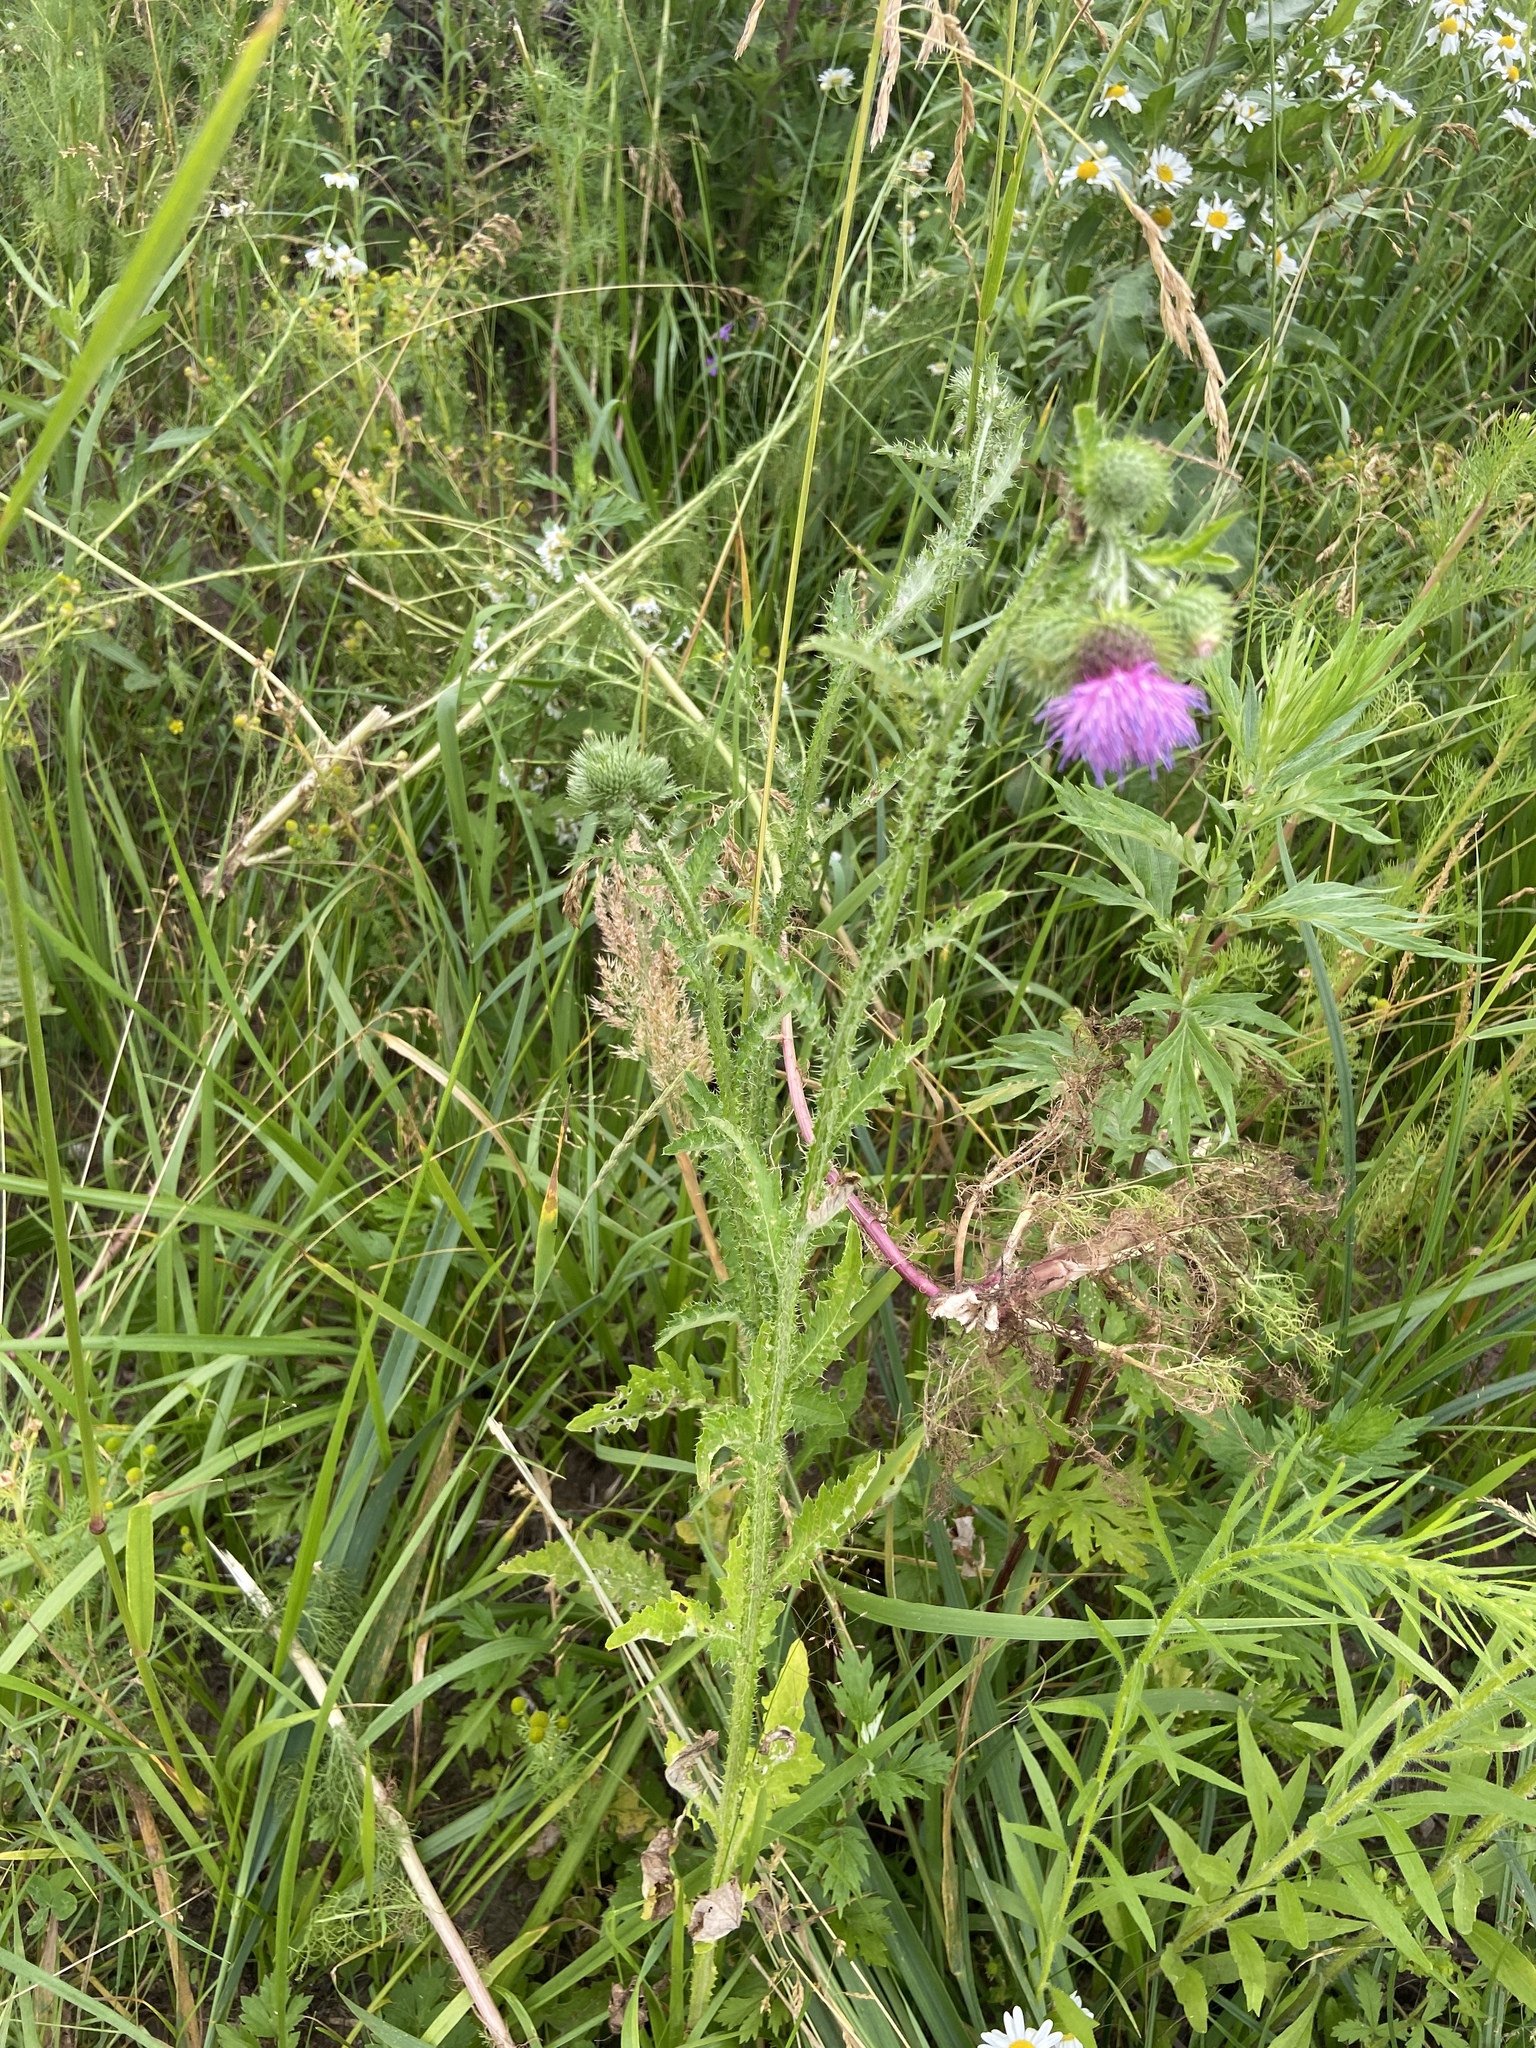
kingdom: Plantae
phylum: Tracheophyta
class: Magnoliopsida
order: Asterales
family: Asteraceae
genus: Carduus
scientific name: Carduus crispus
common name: Welted thistle
